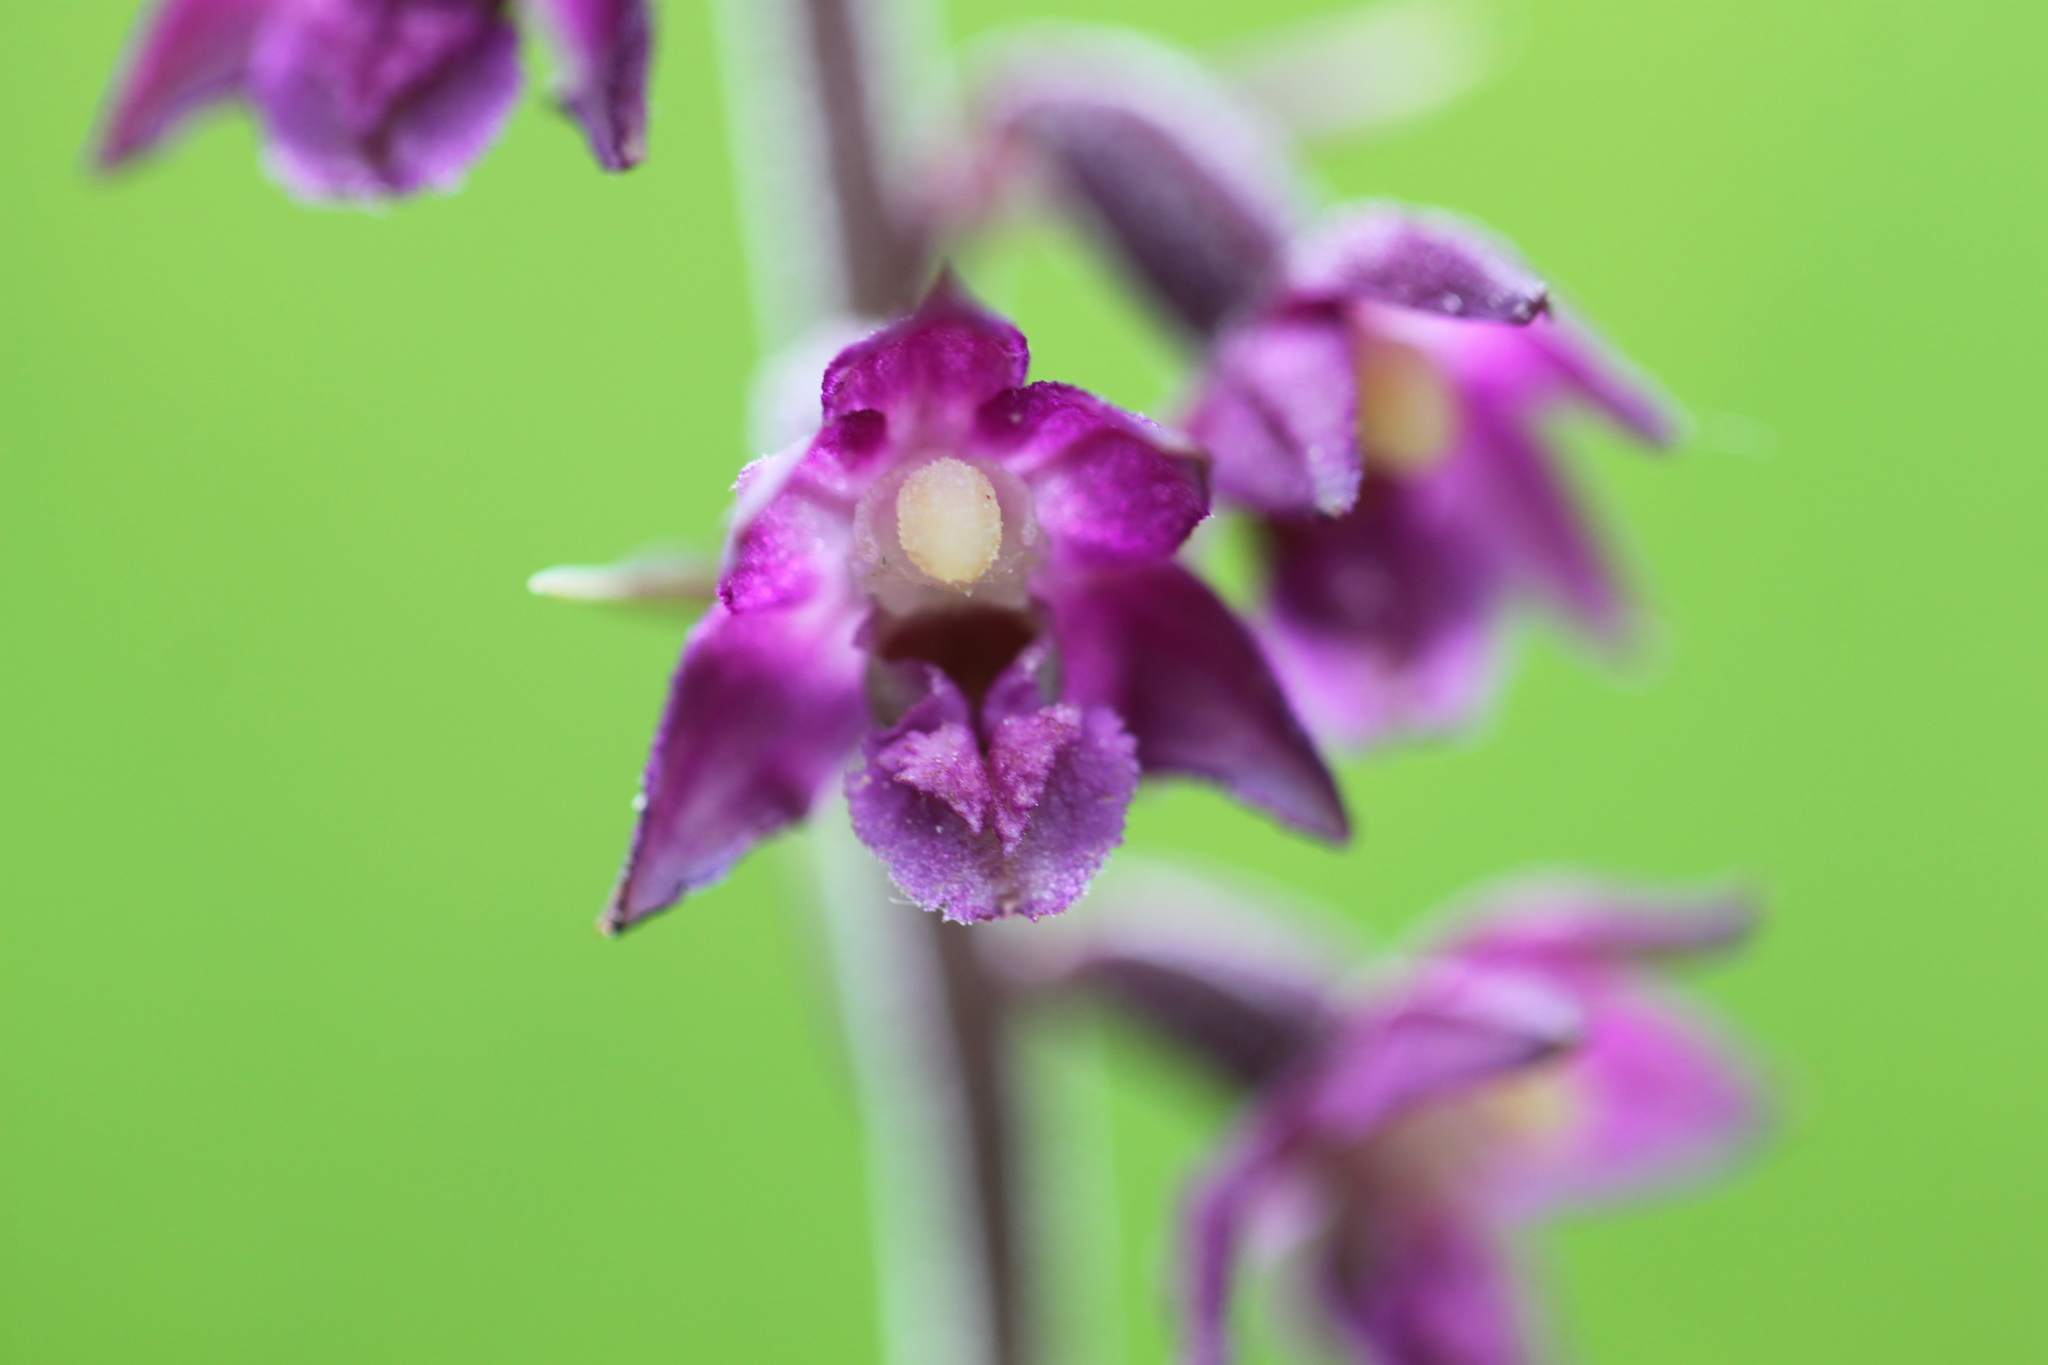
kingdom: Plantae
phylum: Tracheophyta
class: Liliopsida
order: Asparagales
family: Orchidaceae
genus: Epipactis
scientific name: Epipactis atrorubens
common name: Dark-red helleborine
